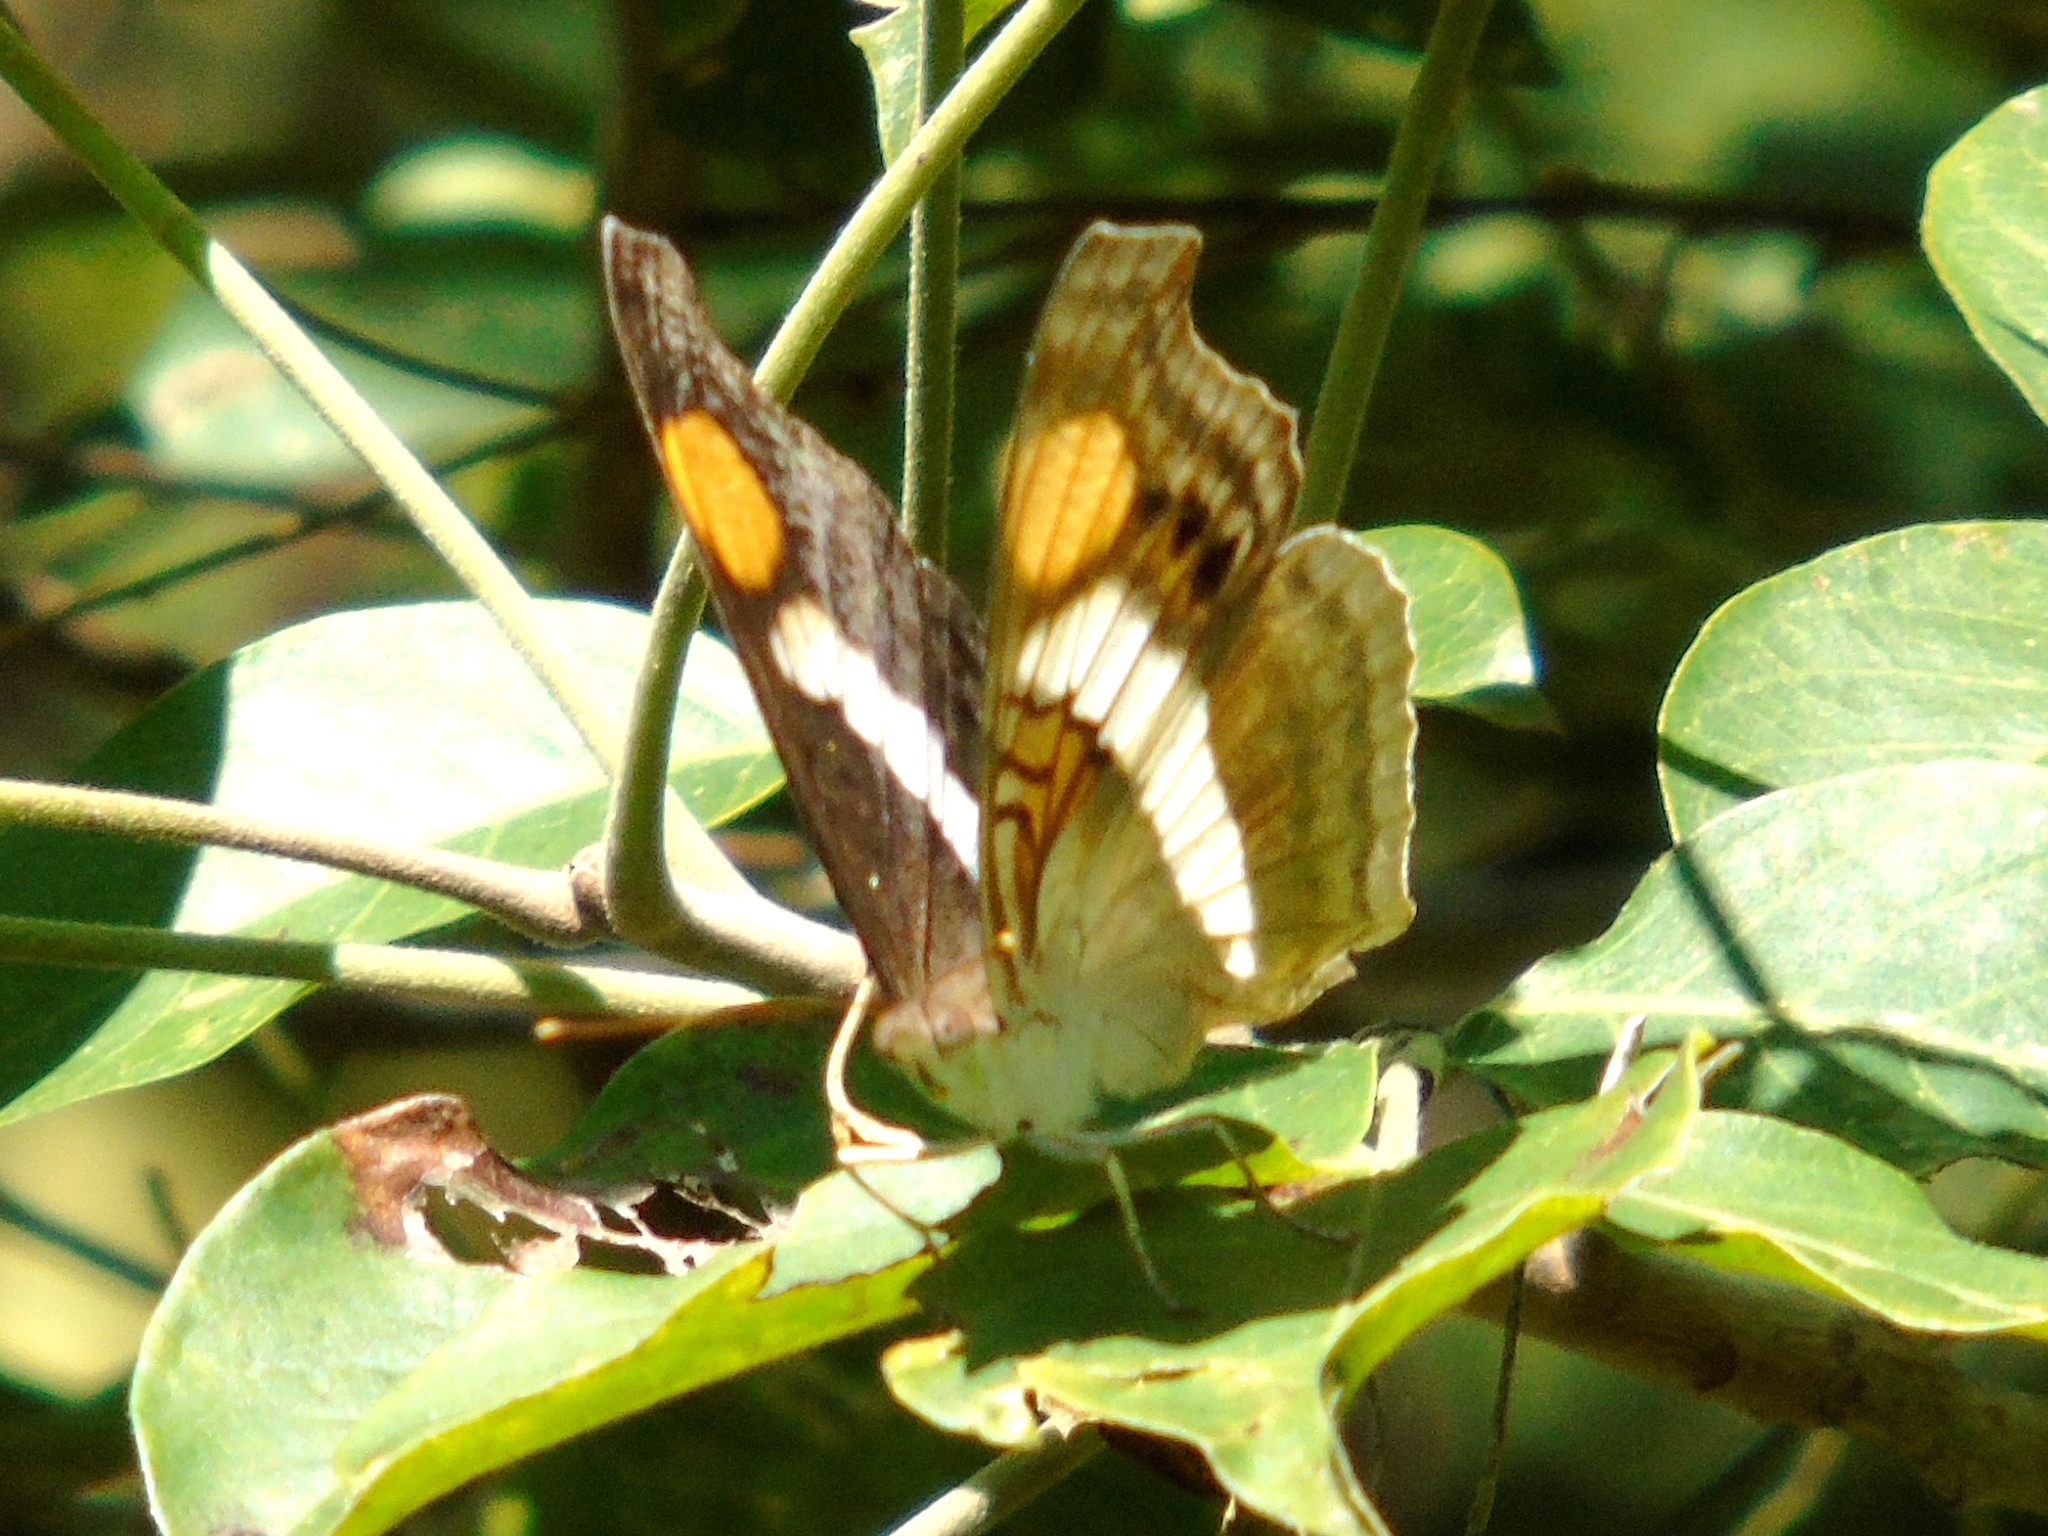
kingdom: Animalia
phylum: Arthropoda
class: Insecta
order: Lepidoptera
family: Nymphalidae
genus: Doxocopa
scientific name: Doxocopa laure
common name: Silver emperor
